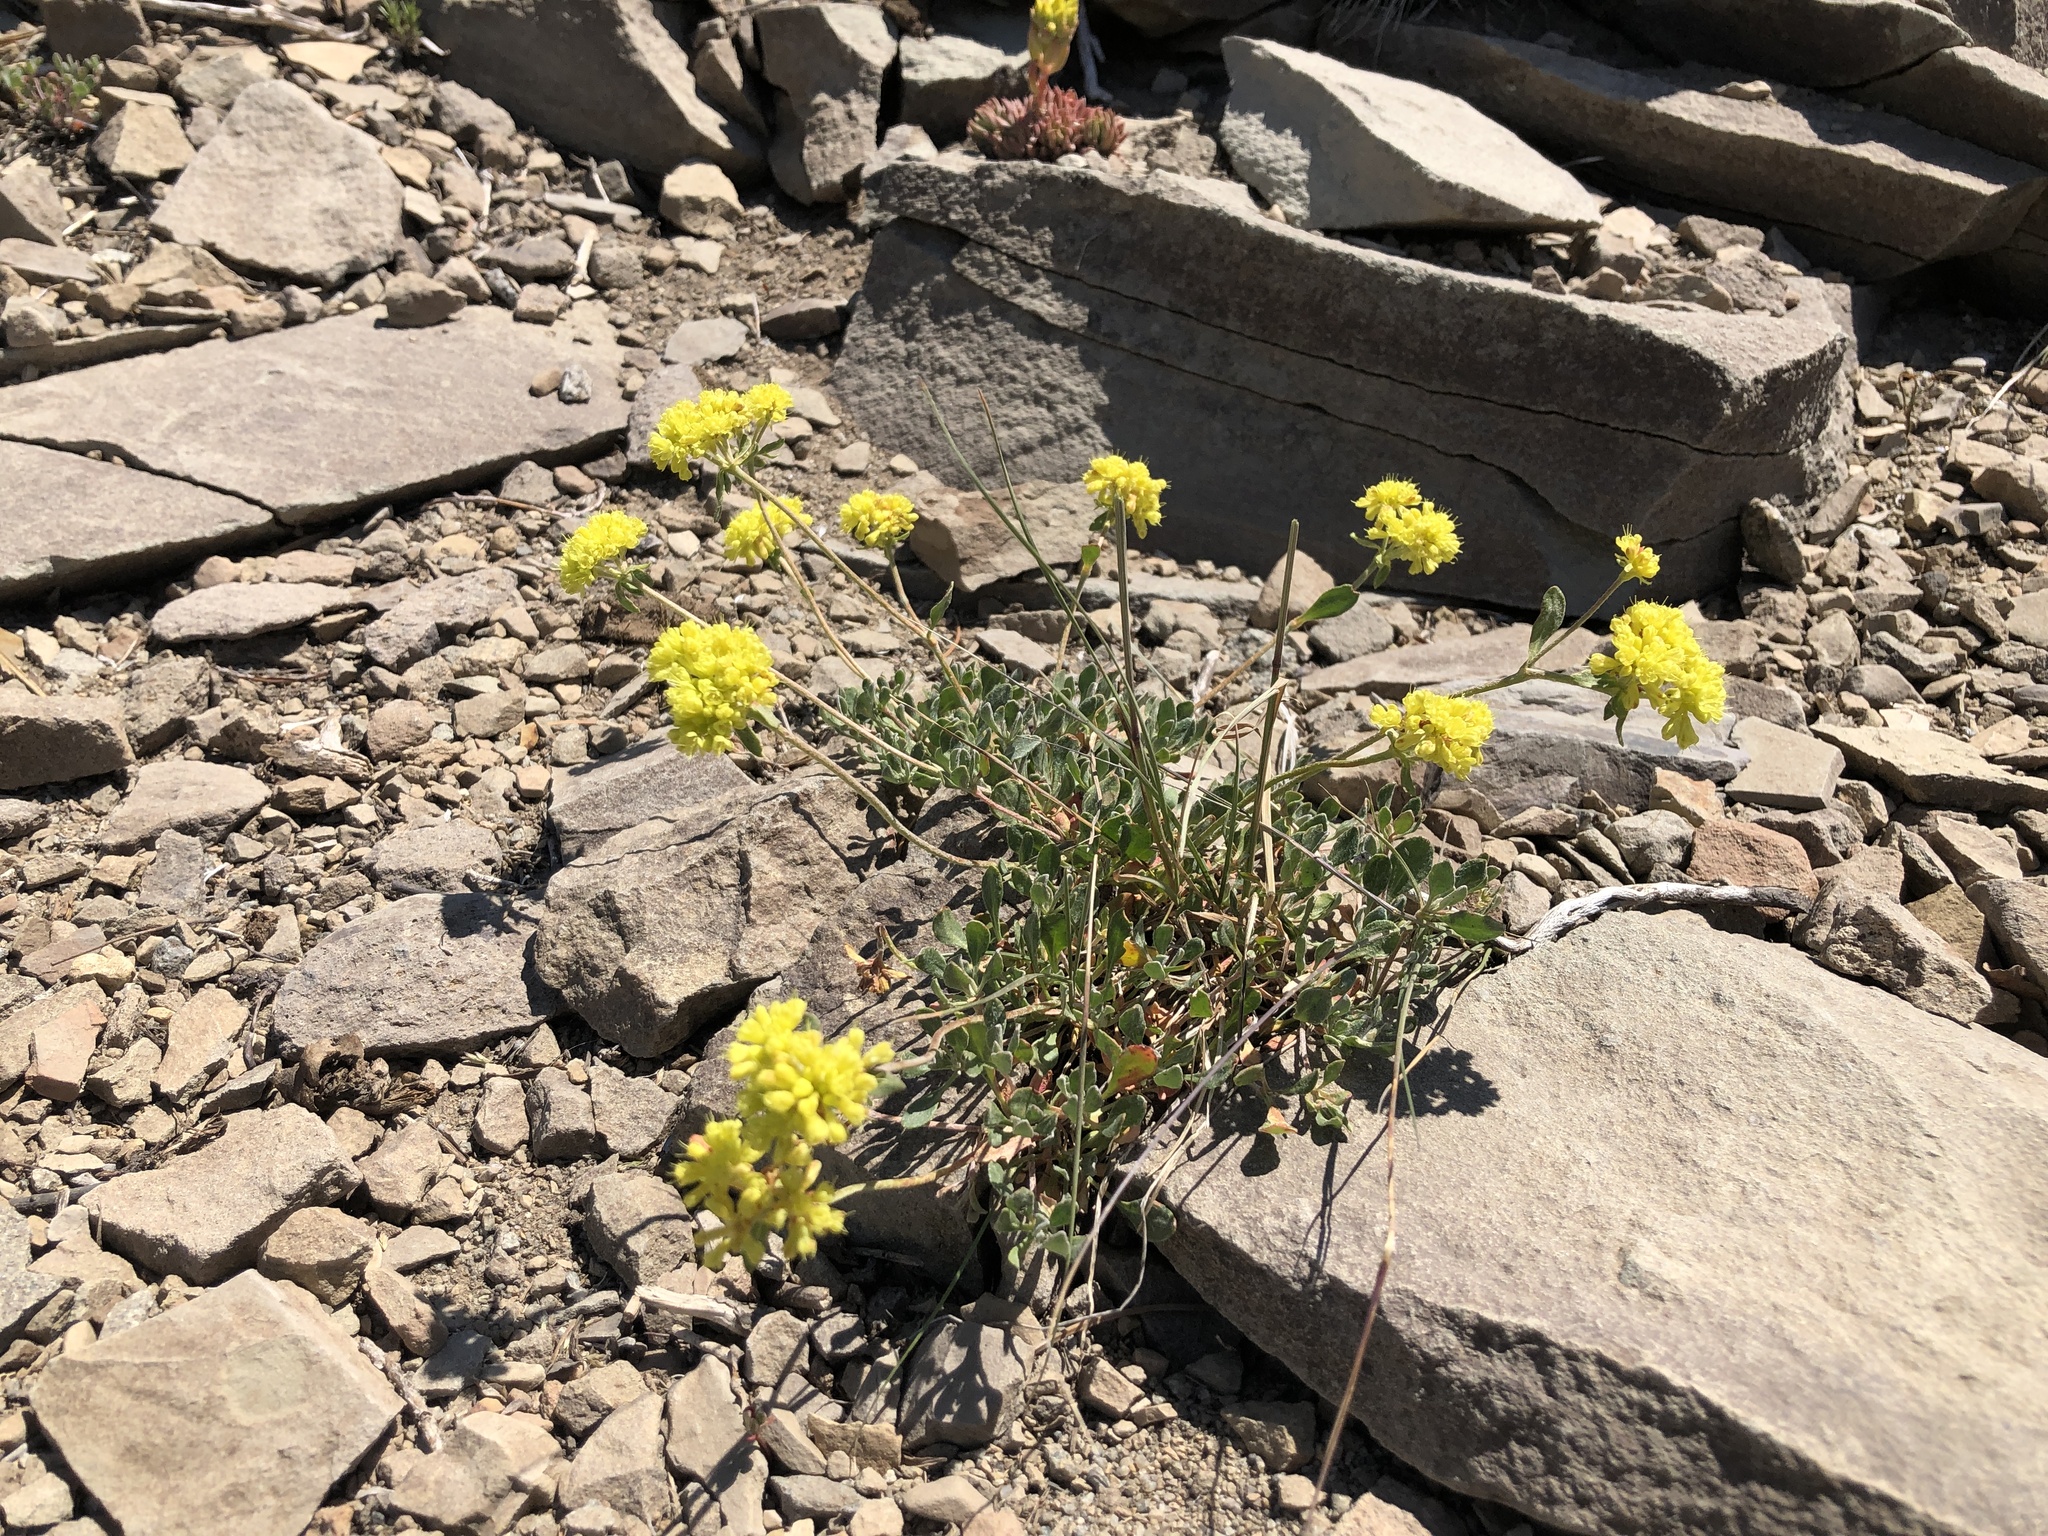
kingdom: Plantae
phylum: Tracheophyta
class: Magnoliopsida
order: Caryophyllales
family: Polygonaceae
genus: Eriogonum
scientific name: Eriogonum umbellatum
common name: Sulfur-buckwheat
